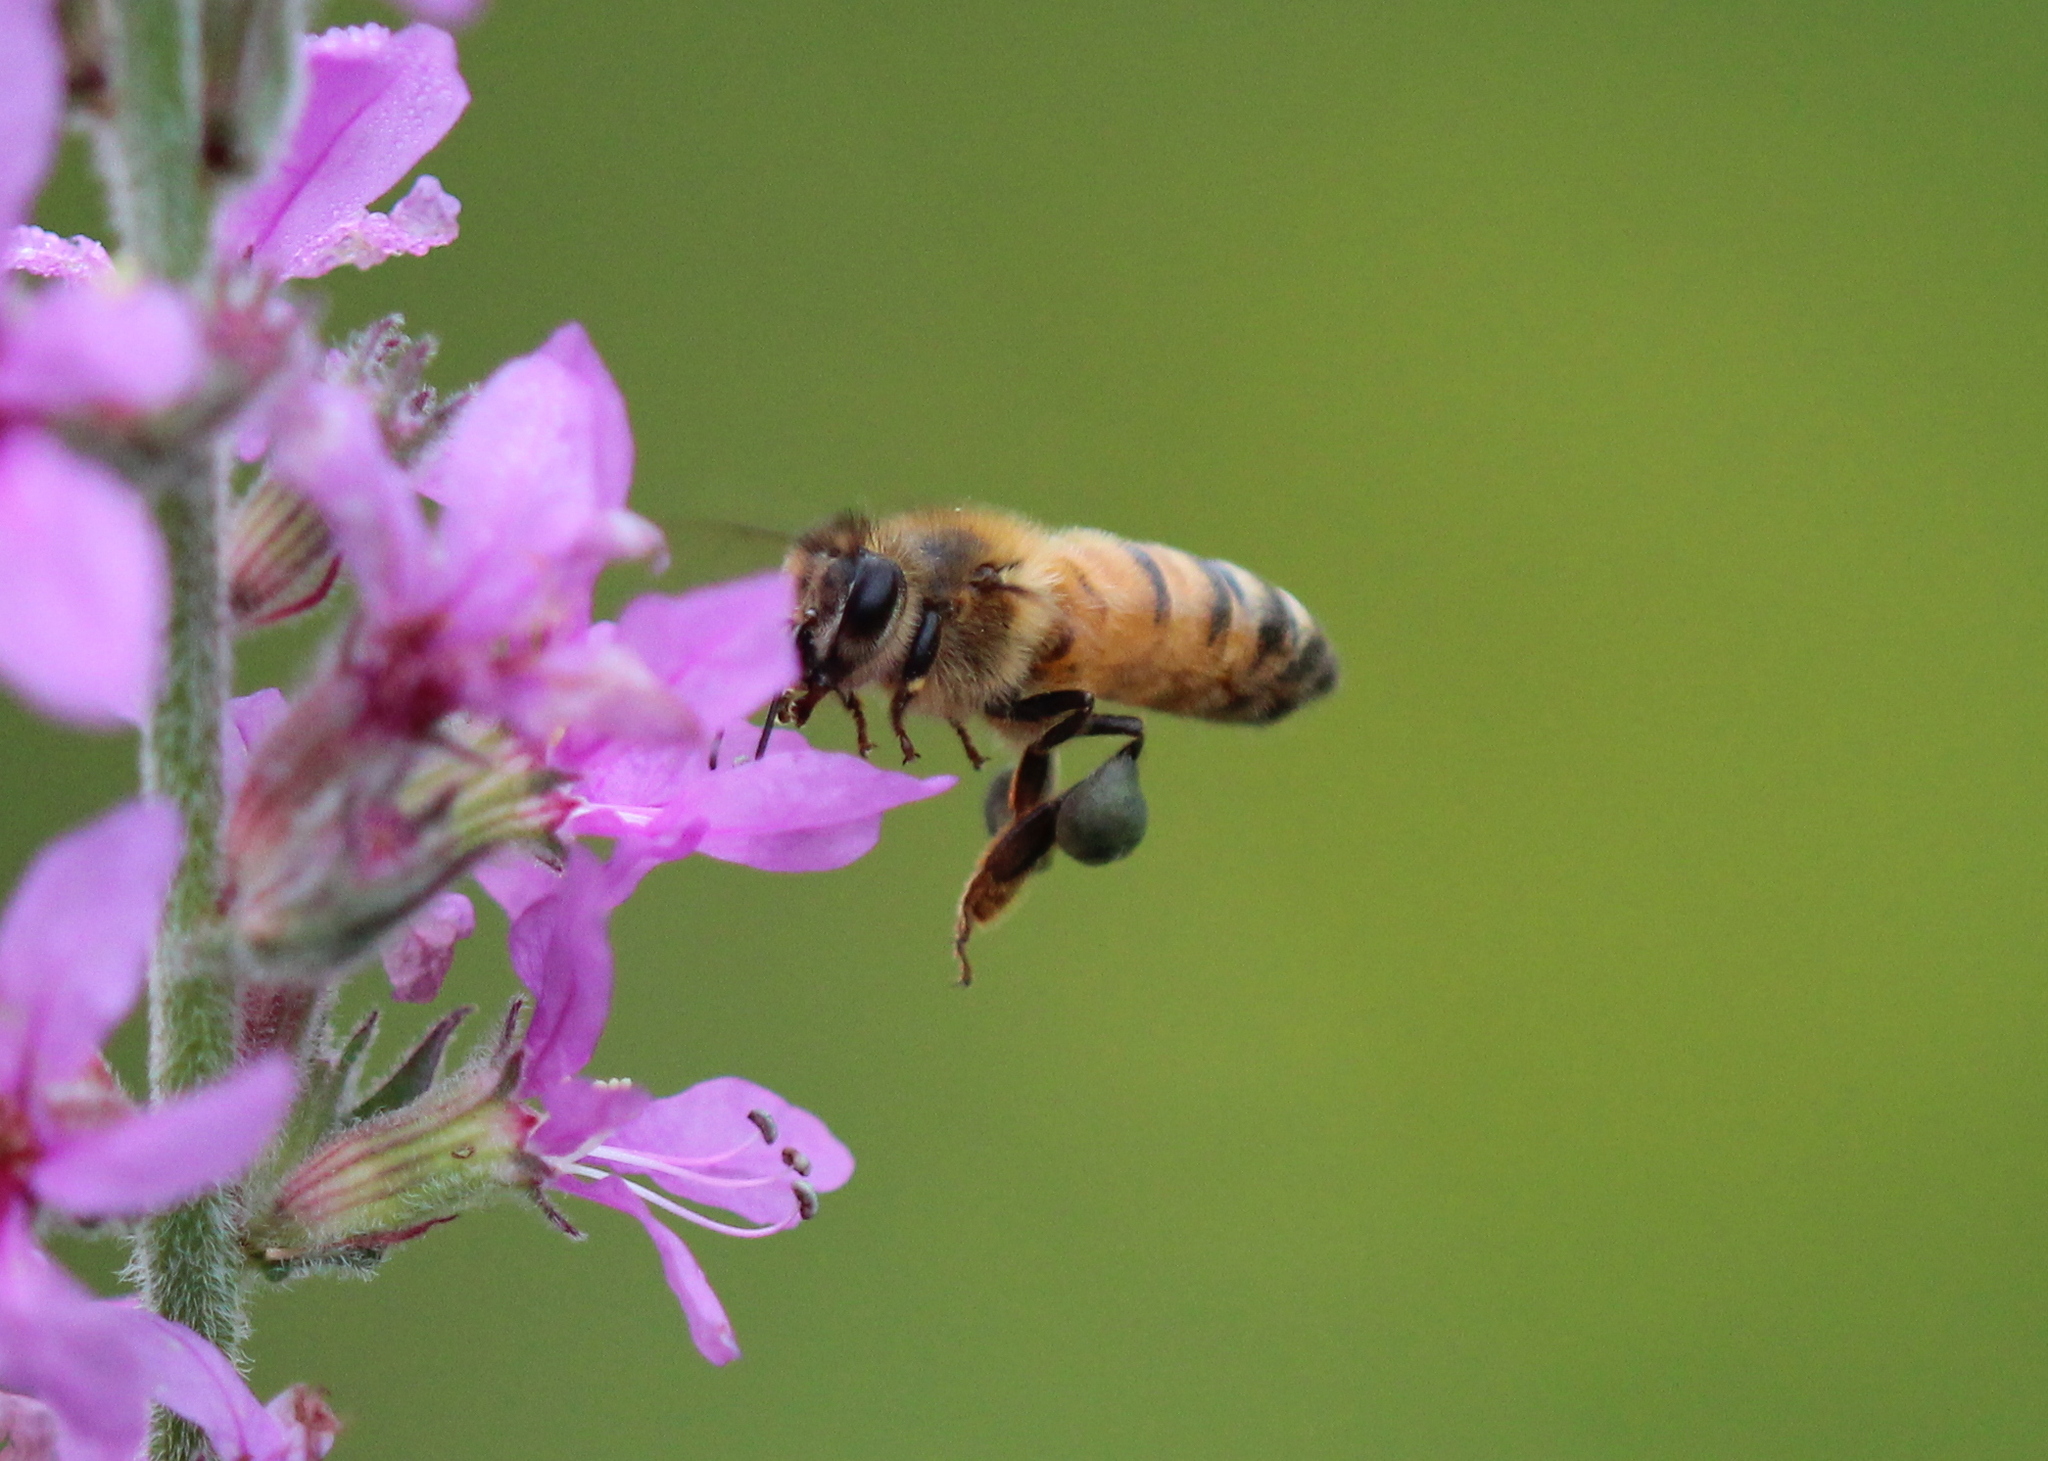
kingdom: Animalia
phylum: Arthropoda
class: Insecta
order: Hymenoptera
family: Apidae
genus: Apis
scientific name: Apis mellifera
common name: Honey bee
